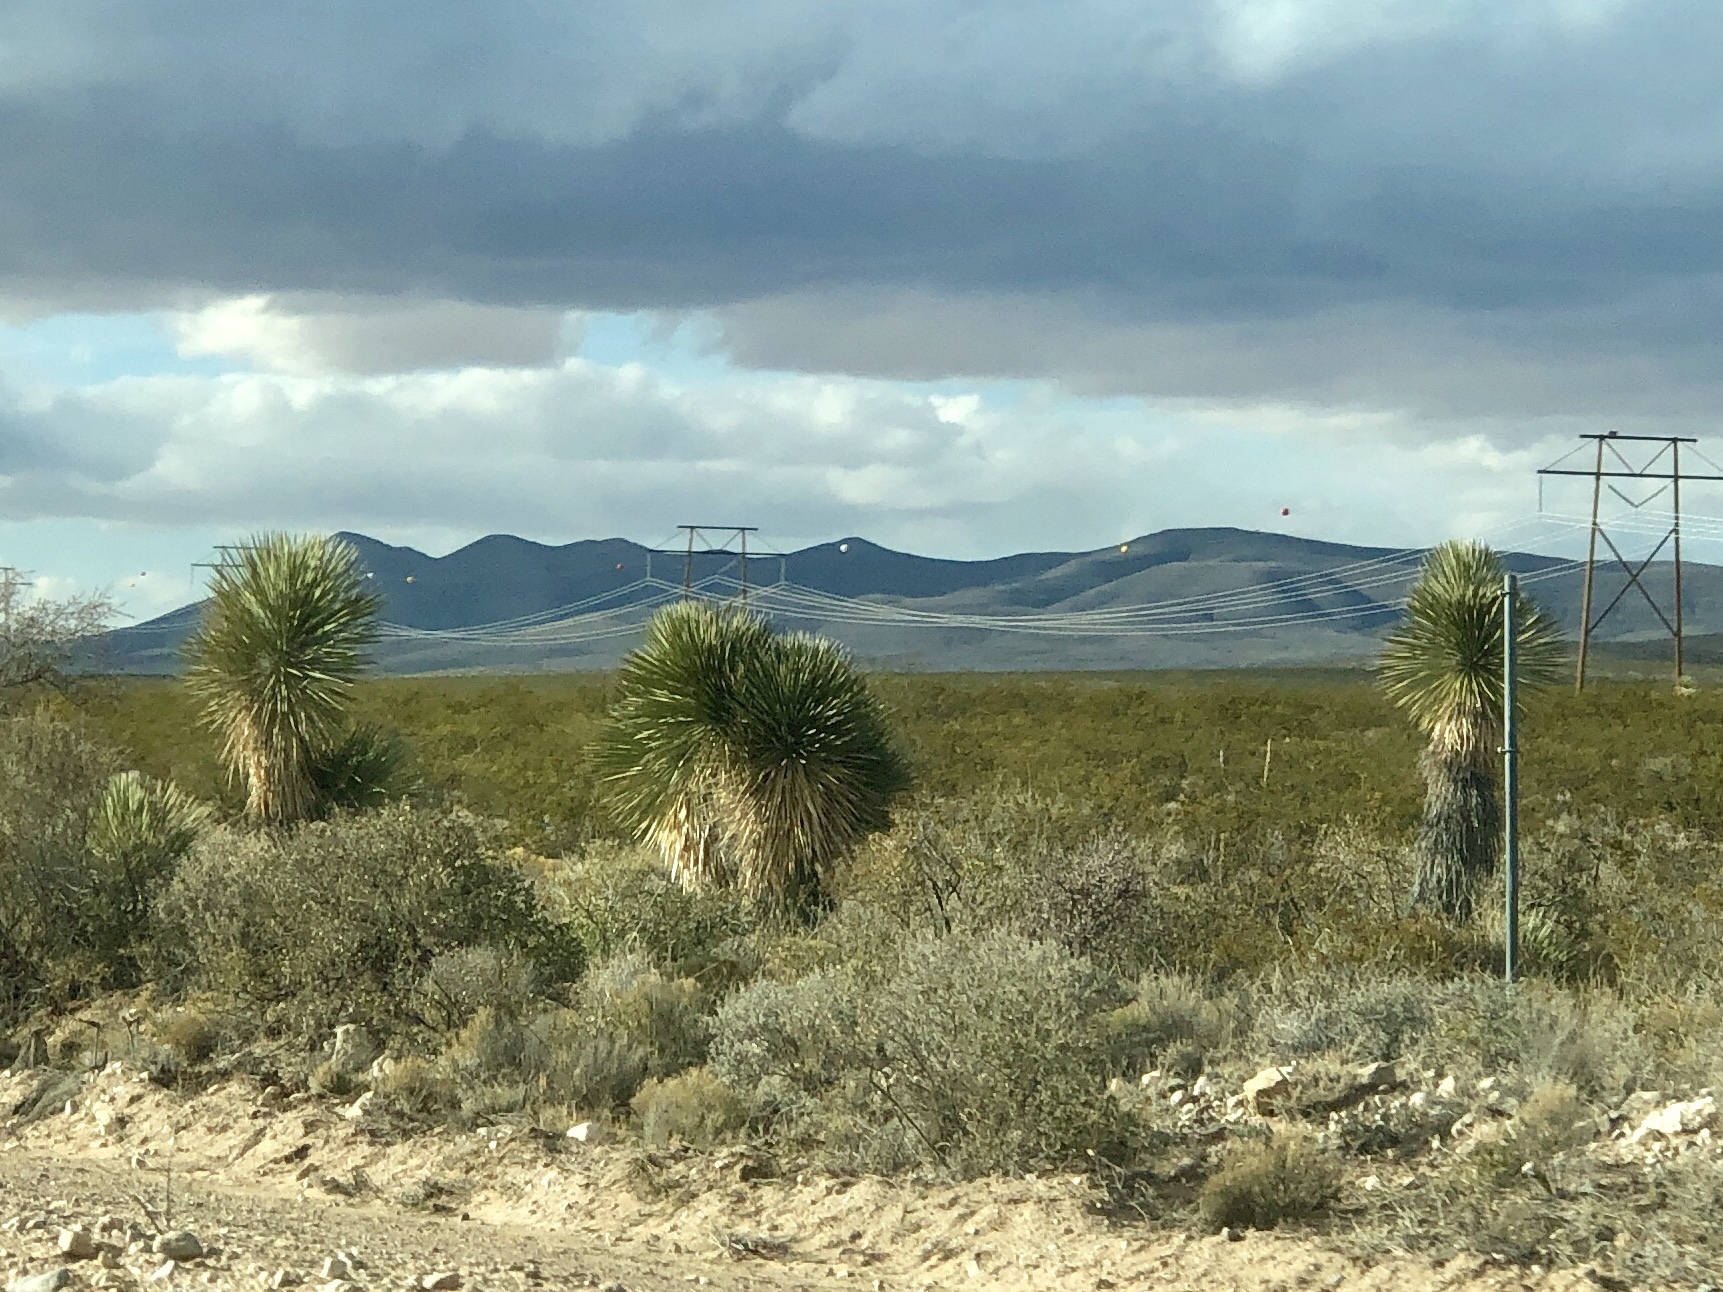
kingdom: Plantae
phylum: Tracheophyta
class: Liliopsida
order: Asparagales
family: Asparagaceae
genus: Yucca
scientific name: Yucca elata
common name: Palmella
